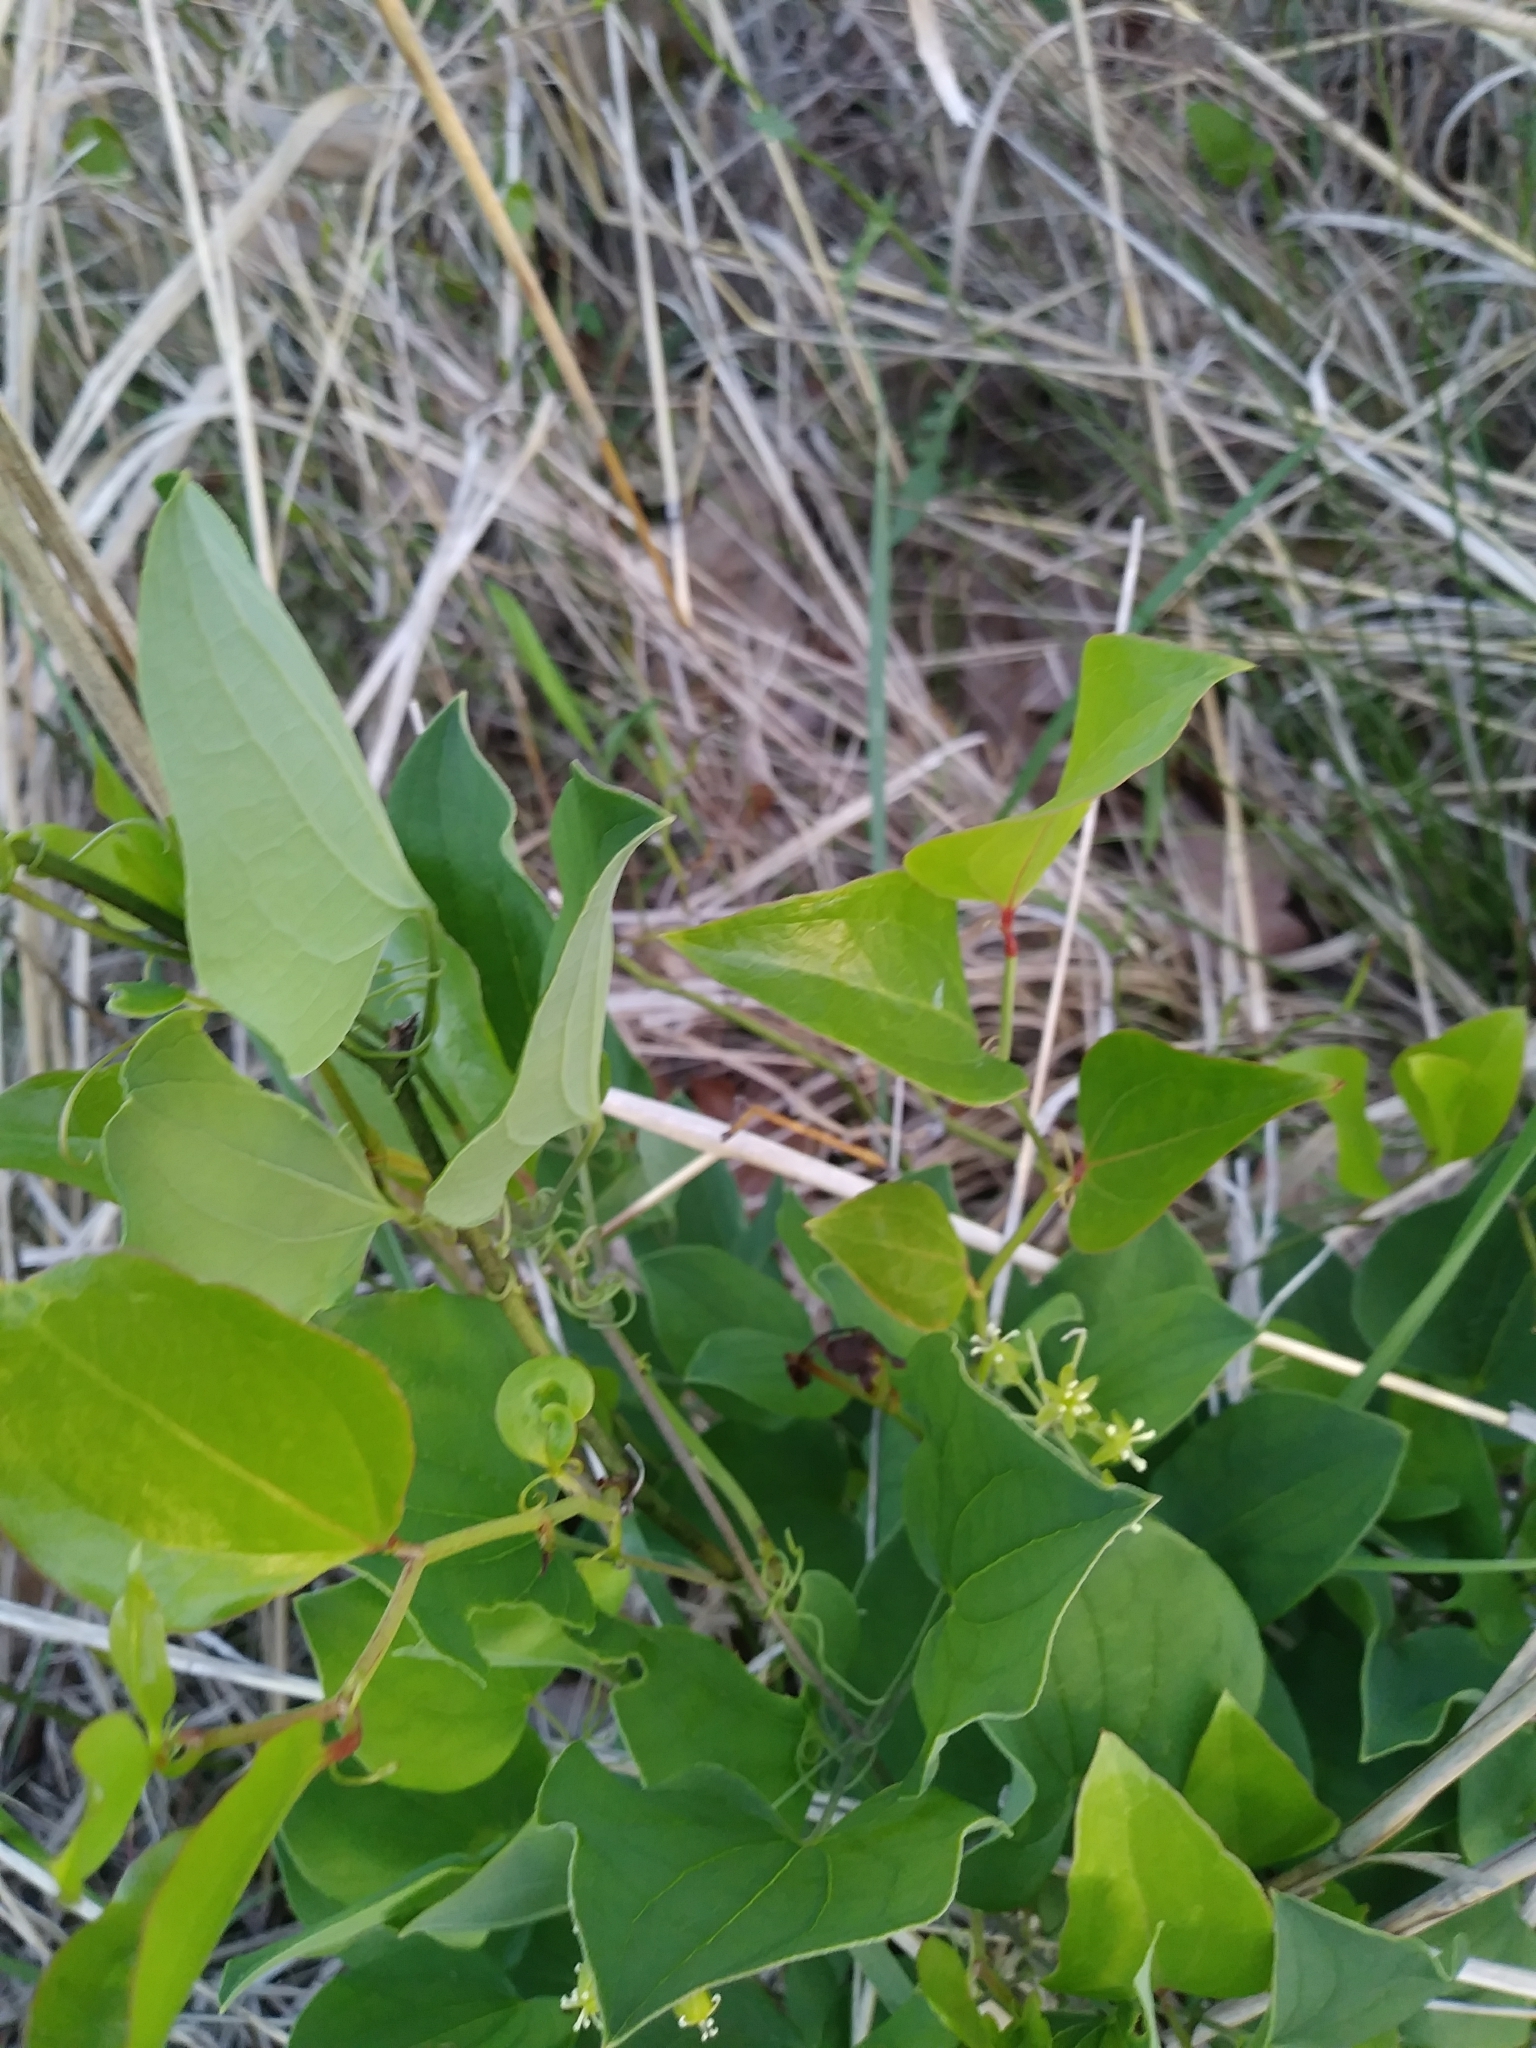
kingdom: Plantae
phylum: Tracheophyta
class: Liliopsida
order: Liliales
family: Smilacaceae
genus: Smilax
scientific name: Smilax herbacea
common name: Jacob's-ladder
